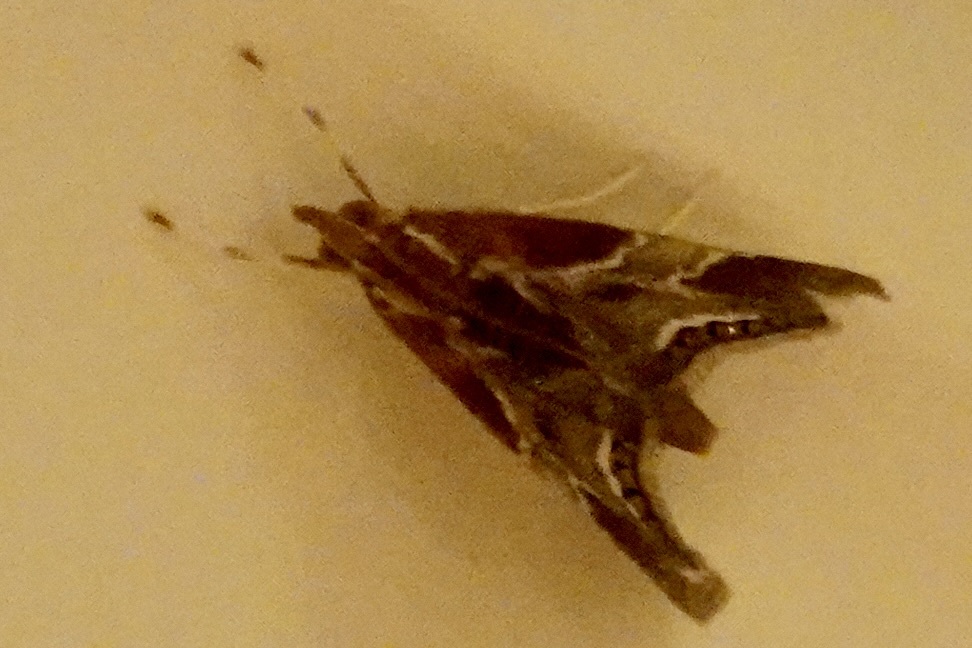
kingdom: Animalia
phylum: Arthropoda
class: Insecta
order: Lepidoptera
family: Crambidae
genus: Chalcoela
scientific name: Chalcoela pegasalis
